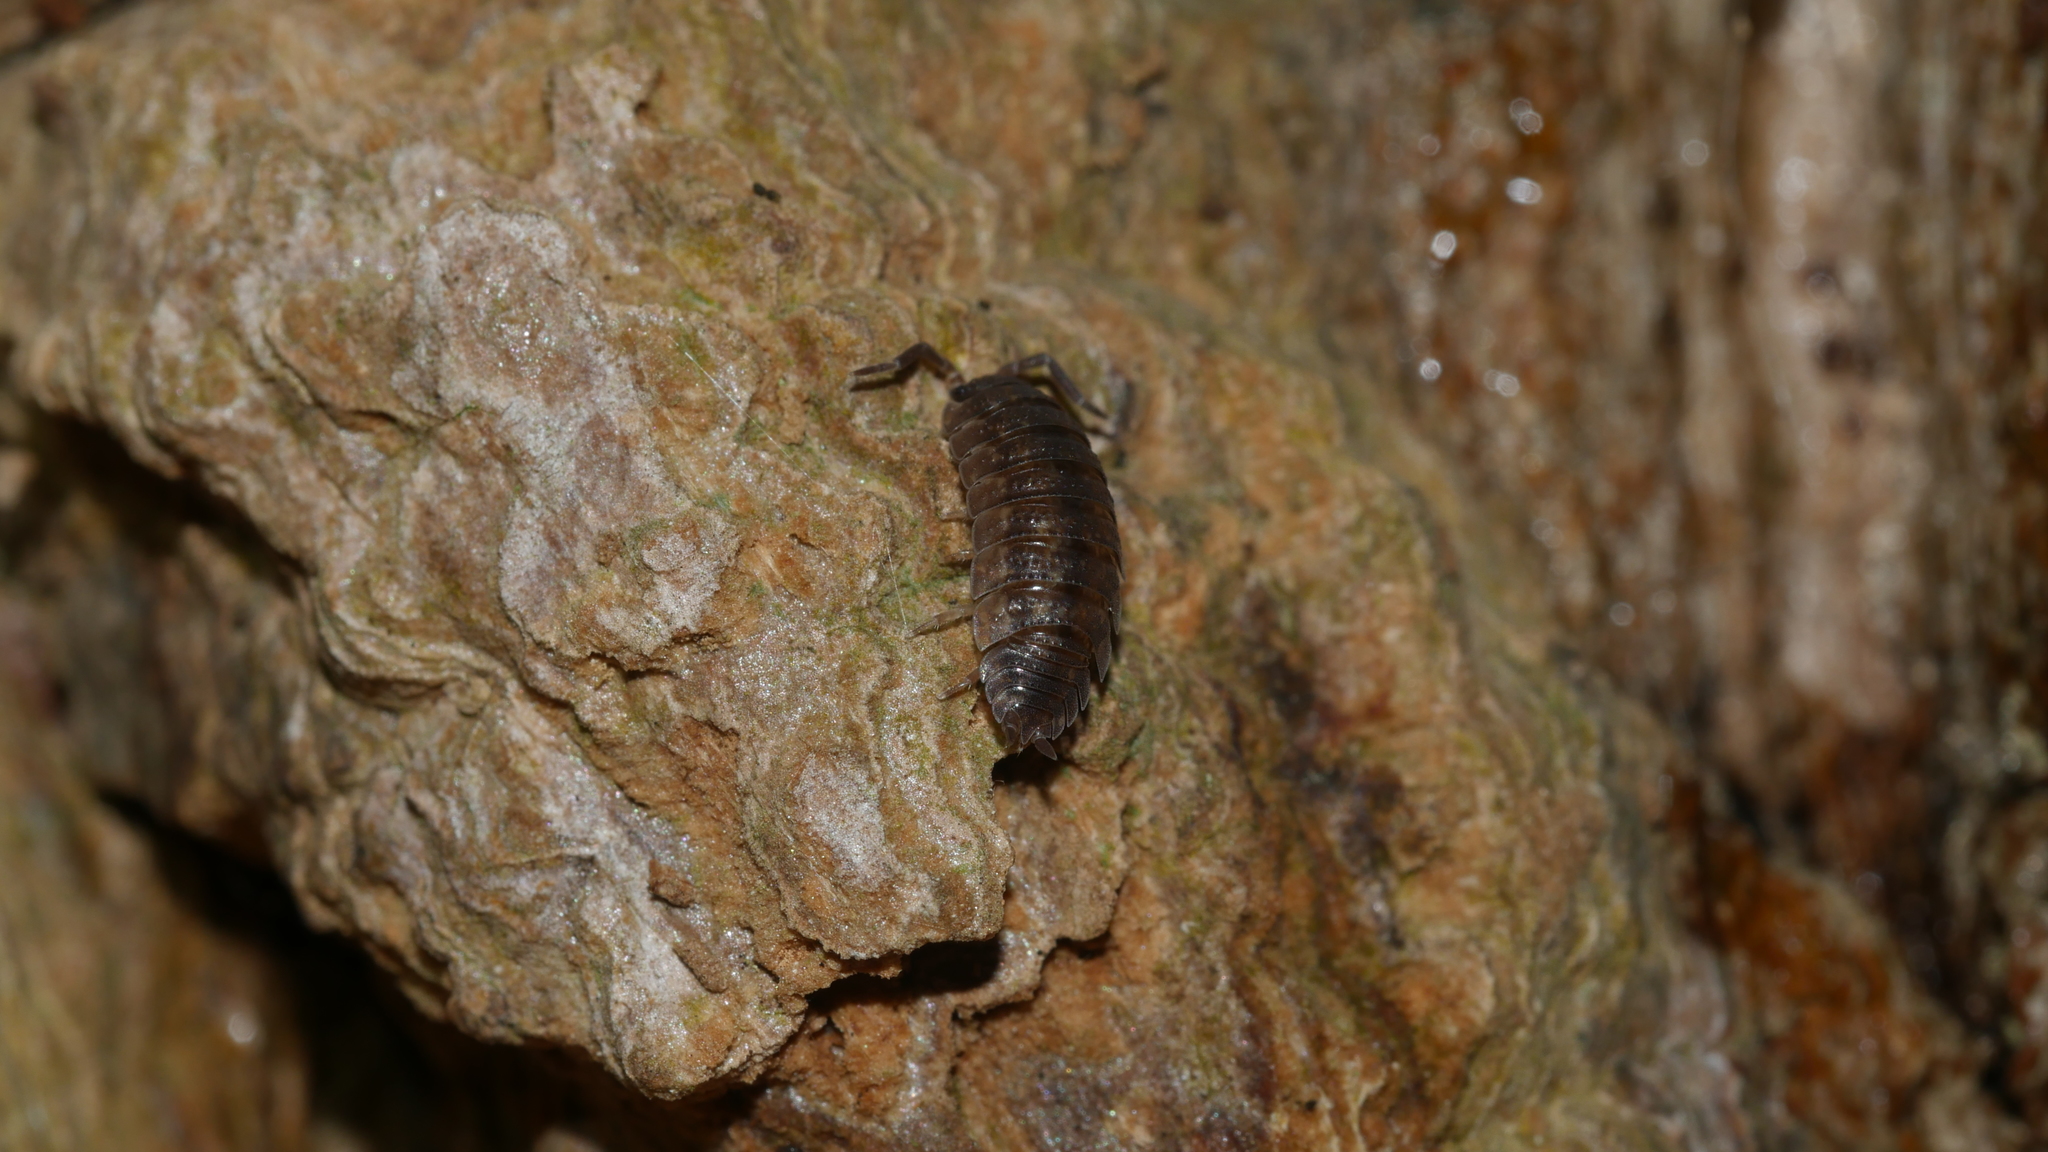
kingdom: Animalia
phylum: Arthropoda
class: Malacostraca
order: Isopoda
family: Porcellionidae
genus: Porcellio
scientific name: Porcellio scaber
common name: Common rough woodlouse
